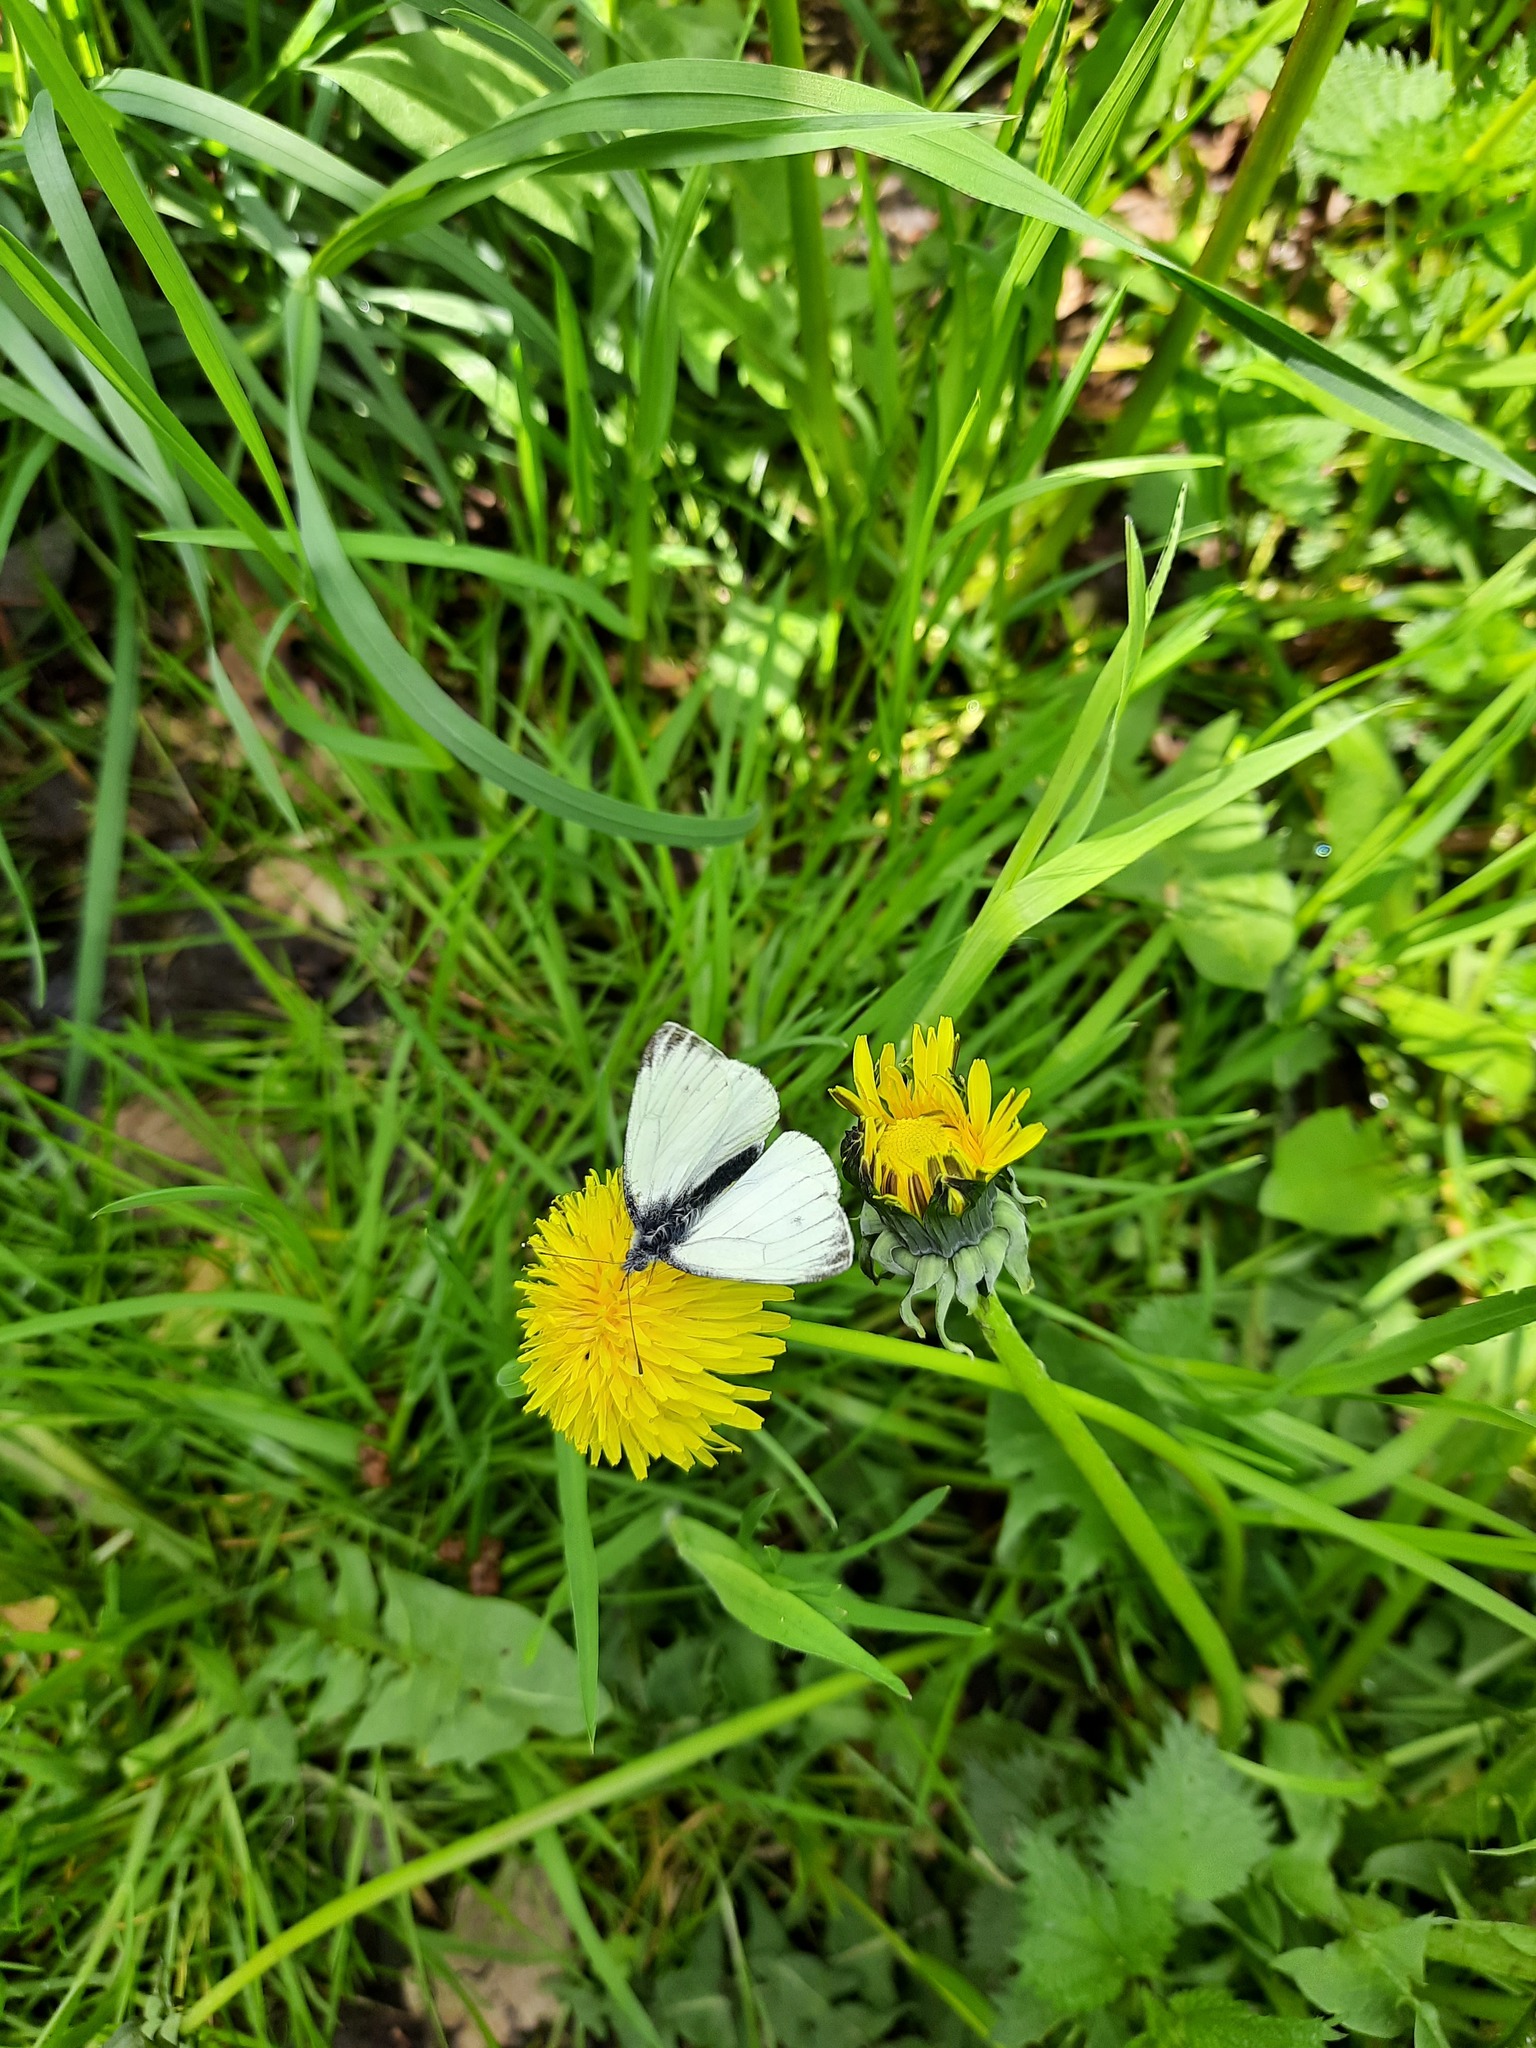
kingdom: Animalia
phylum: Arthropoda
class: Insecta
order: Lepidoptera
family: Pieridae
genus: Pieris
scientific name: Pieris napi
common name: Green-veined white
